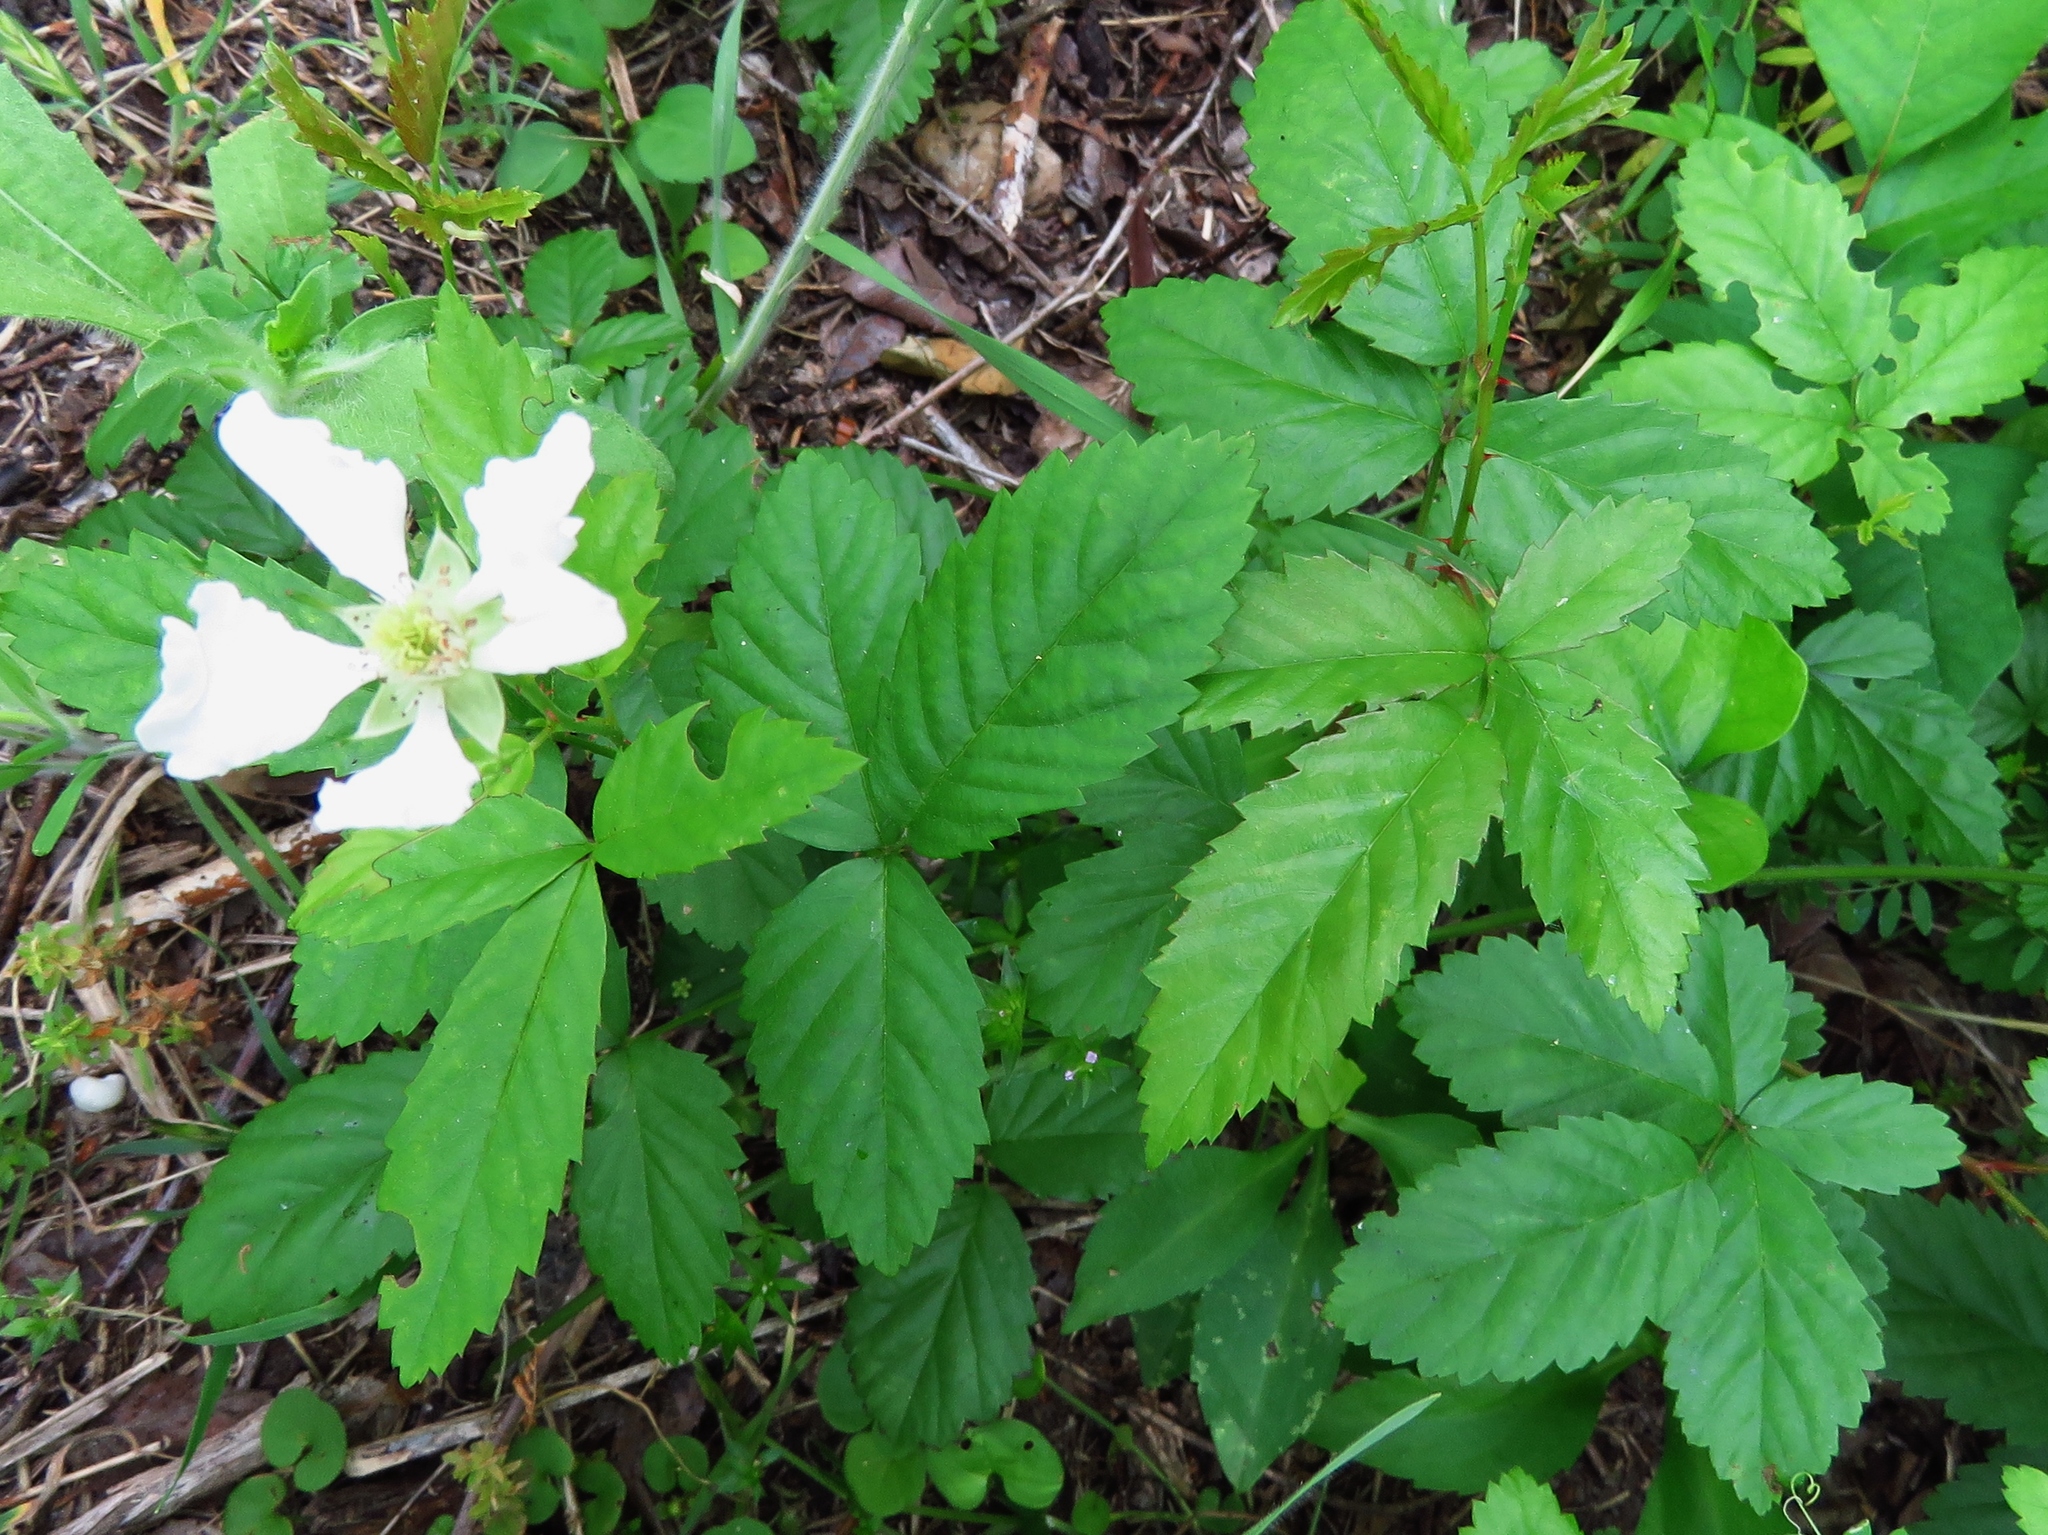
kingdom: Plantae
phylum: Tracheophyta
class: Magnoliopsida
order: Rosales
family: Rosaceae
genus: Rubus
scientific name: Rubus trivialis
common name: Southern dewberry
